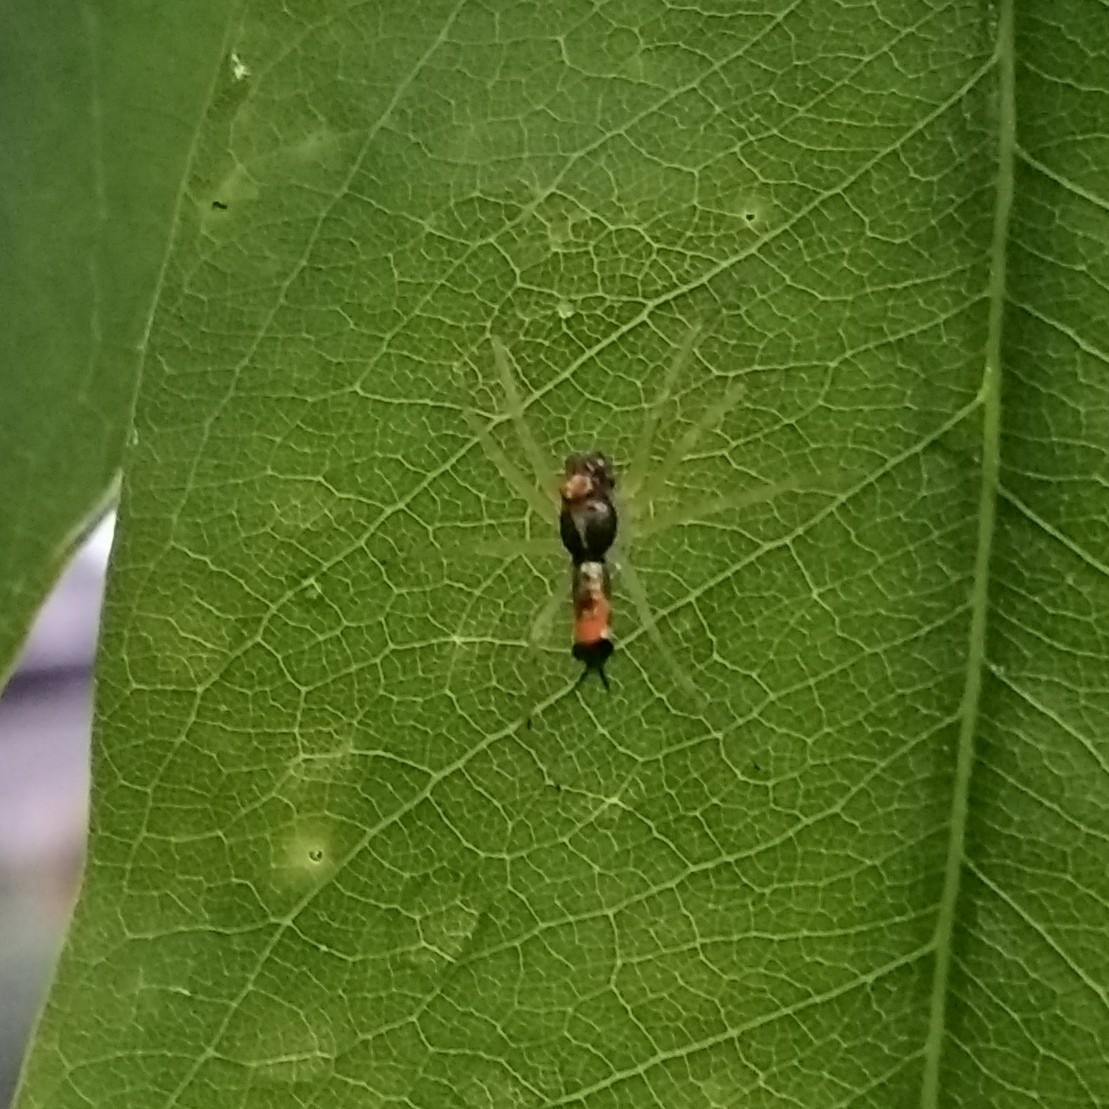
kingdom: Animalia
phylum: Arthropoda
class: Arachnida
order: Araneae
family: Salticidae
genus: Asemonea
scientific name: Asemonea tenuipes
